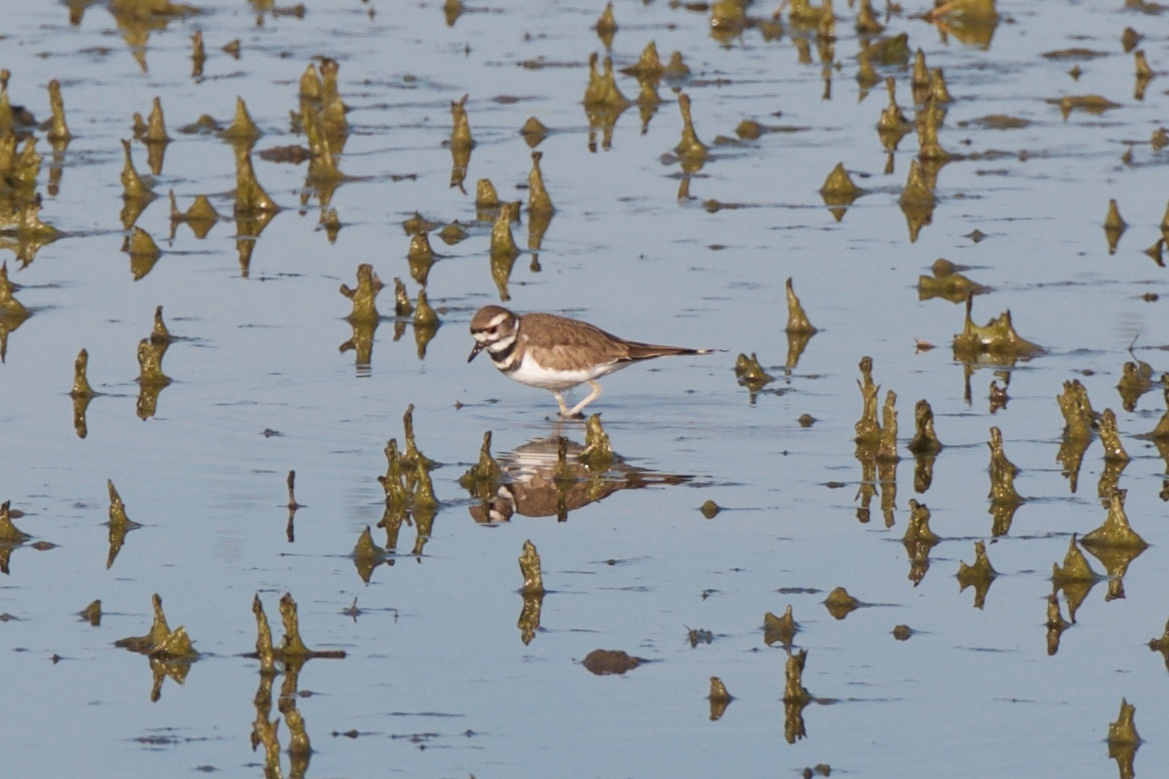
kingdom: Animalia
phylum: Chordata
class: Aves
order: Charadriiformes
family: Charadriidae
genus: Charadrius
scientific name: Charadrius vociferus
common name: Killdeer
